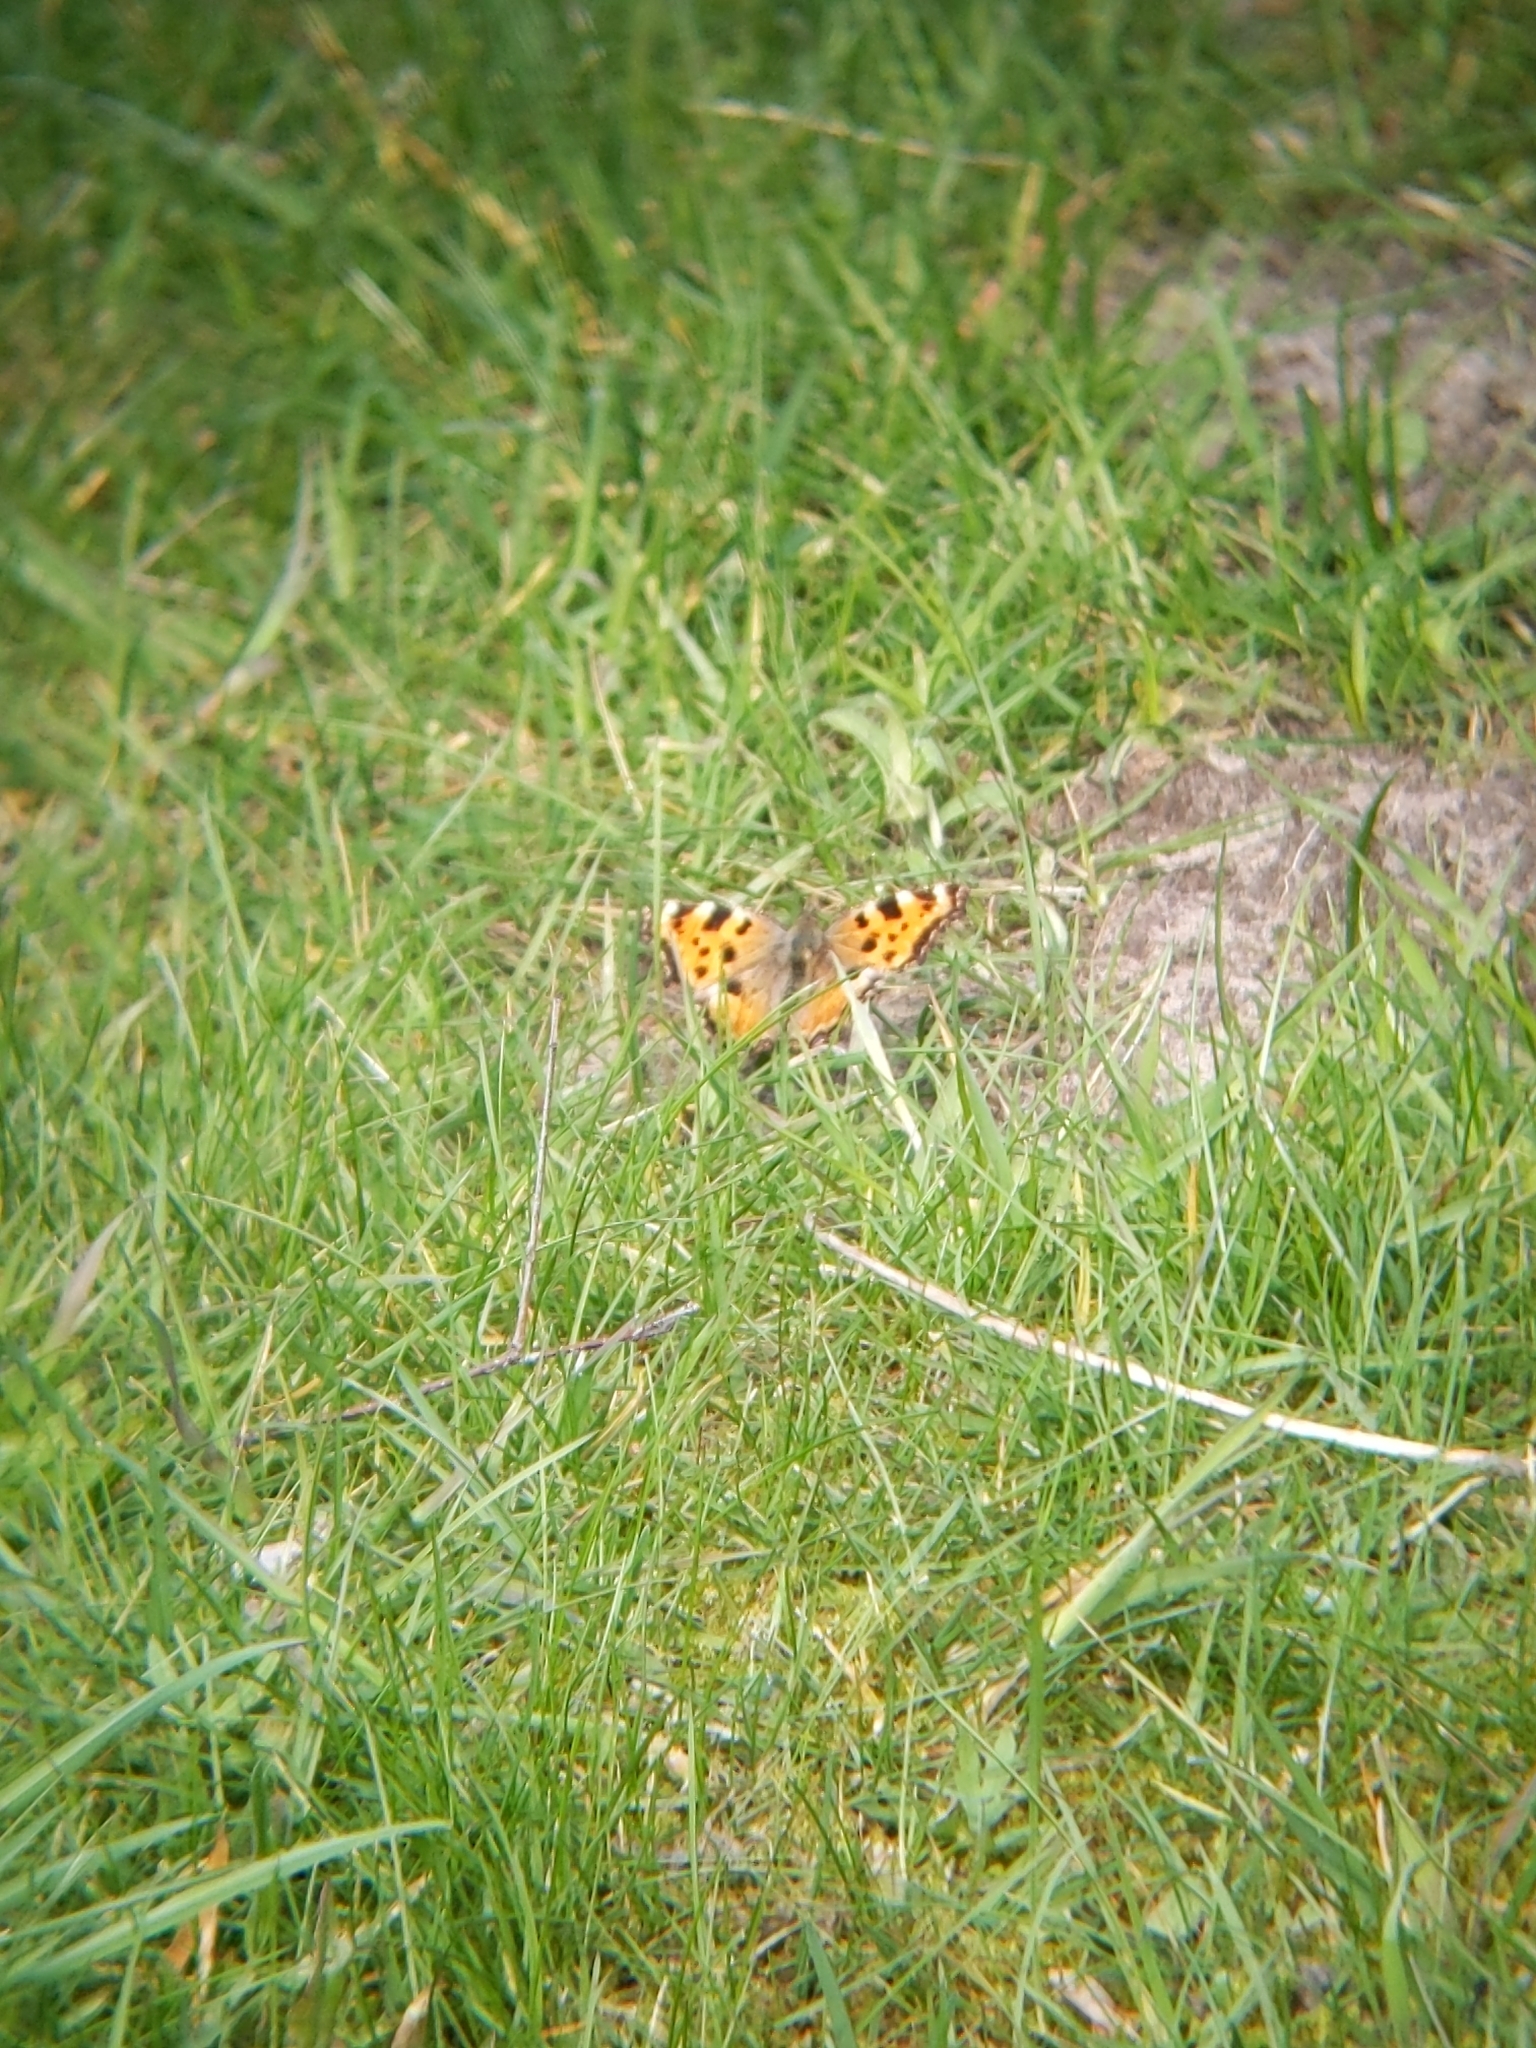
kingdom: Animalia
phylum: Arthropoda
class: Insecta
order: Lepidoptera
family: Nymphalidae
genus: Nymphalis
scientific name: Nymphalis polychloros
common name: Large tortoiseshell
